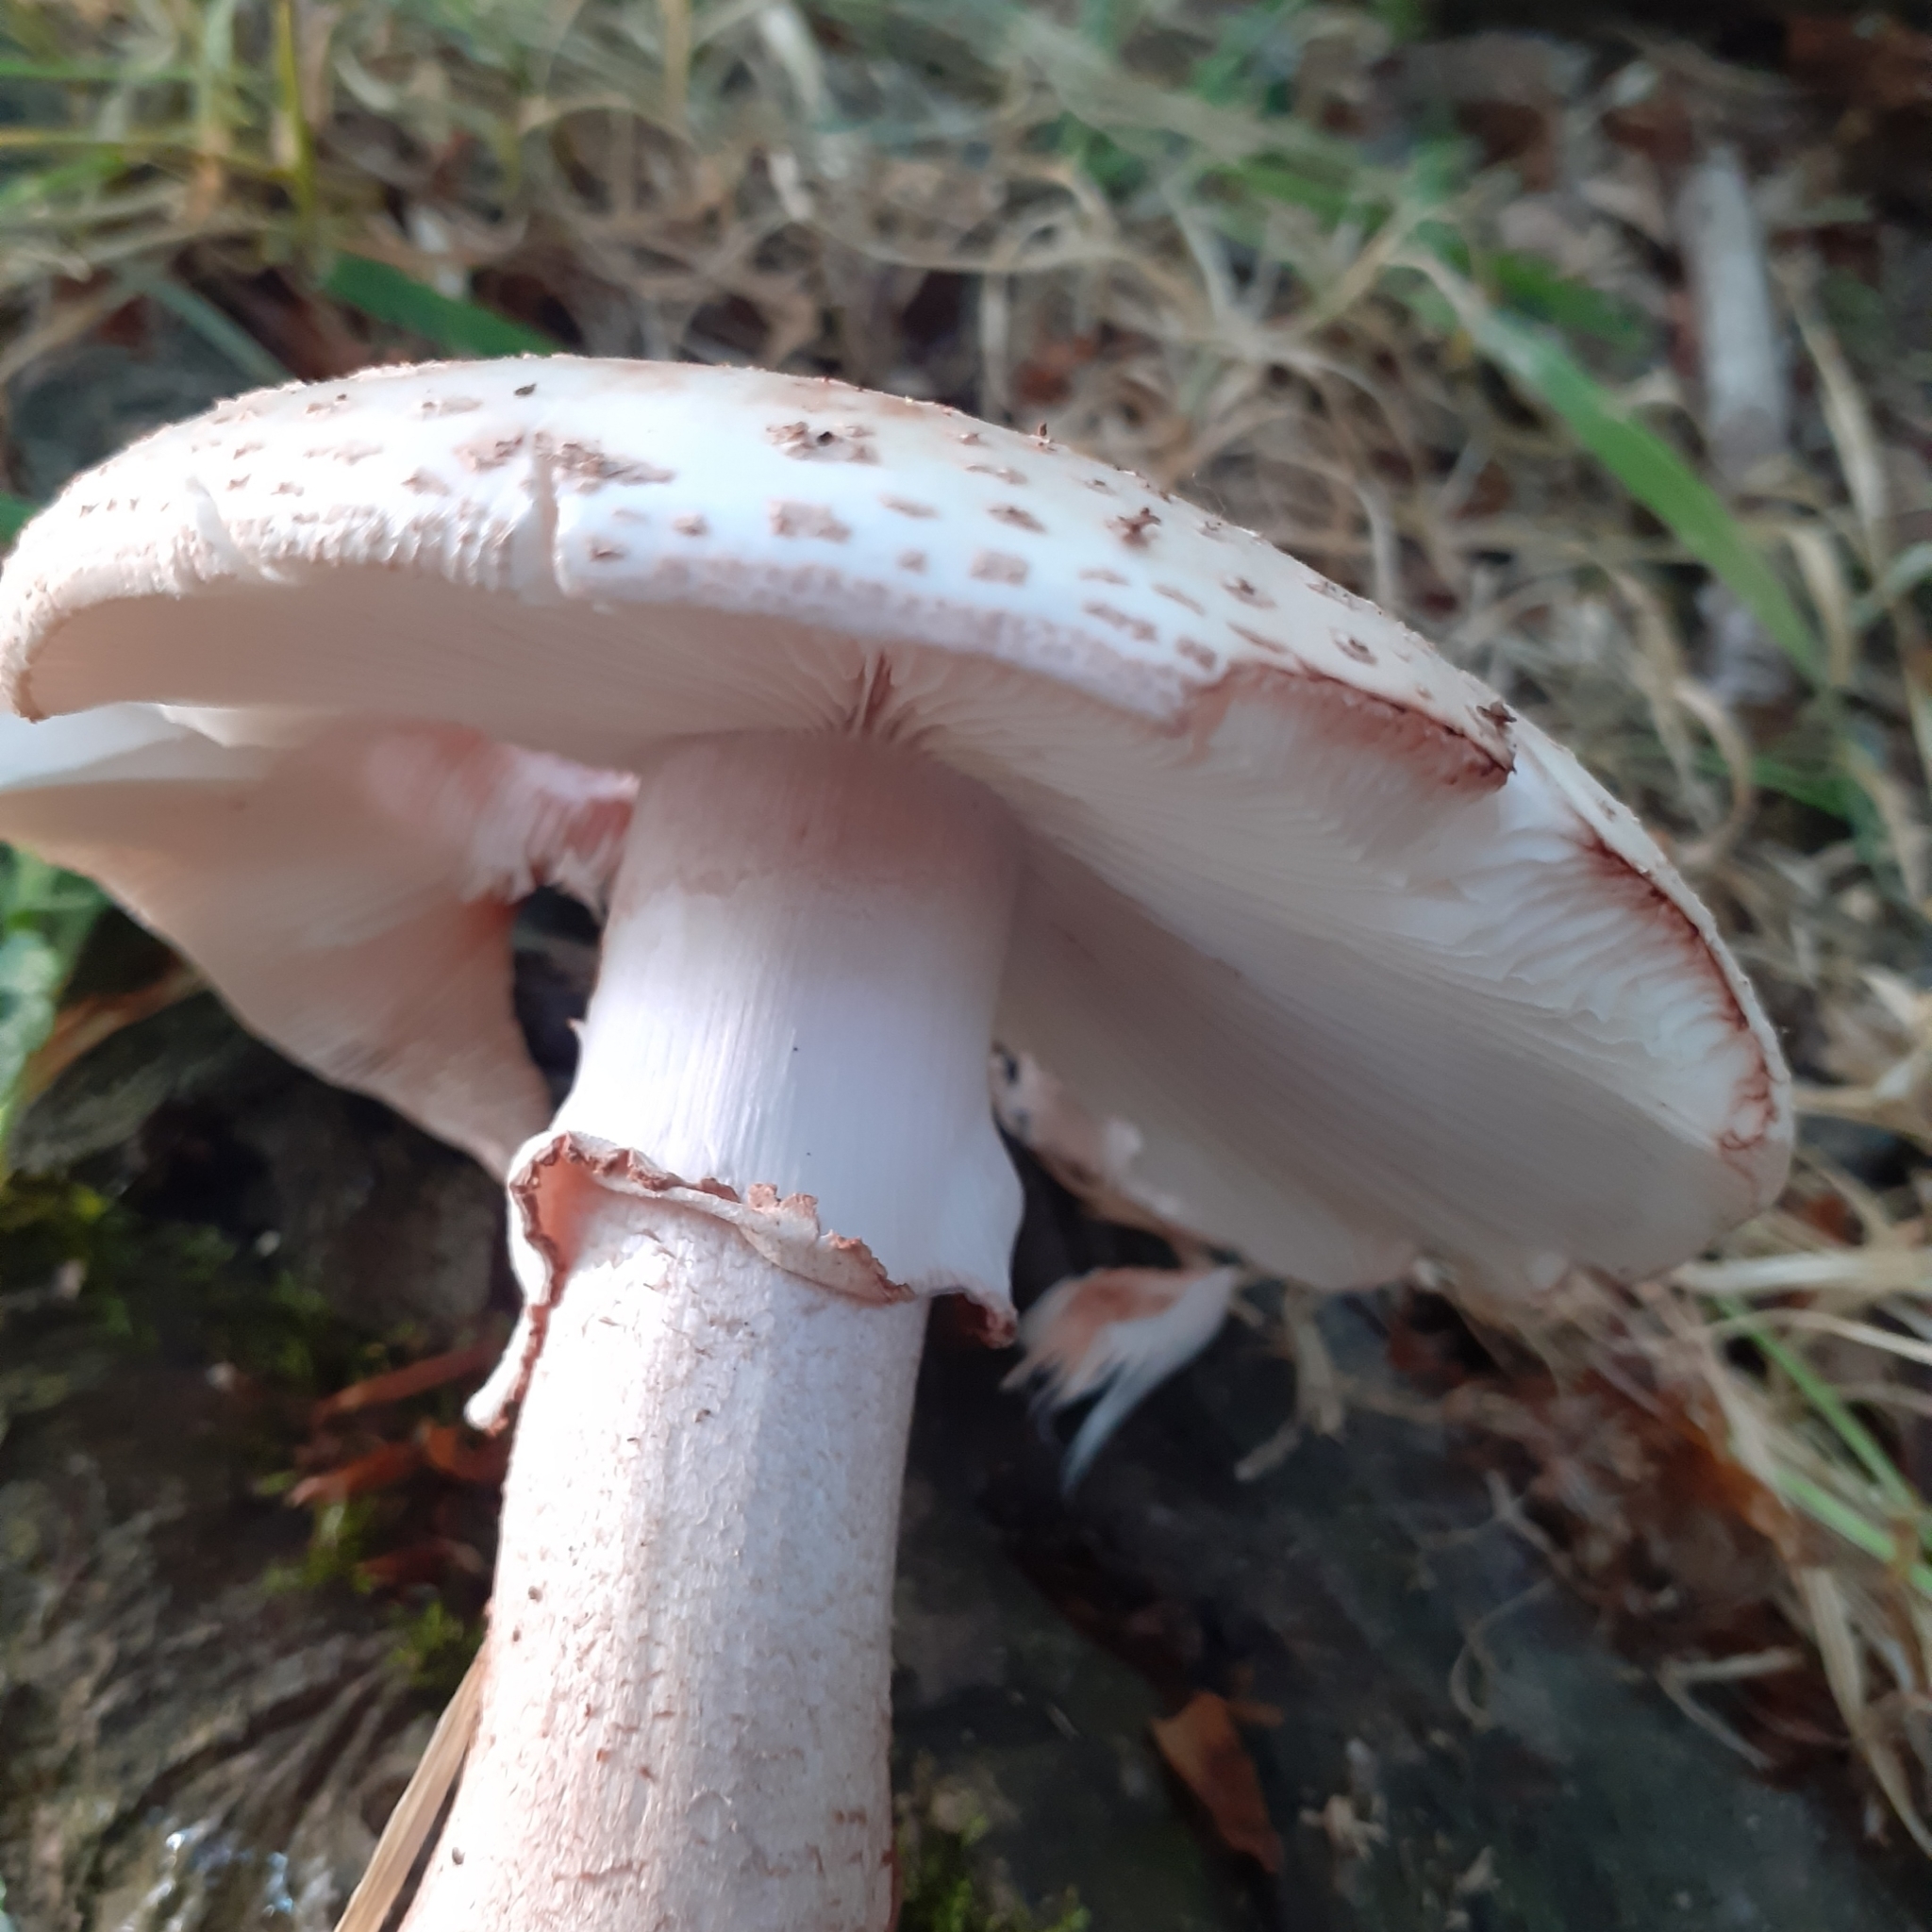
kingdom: Fungi
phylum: Basidiomycota
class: Agaricomycetes
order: Agaricales
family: Amanitaceae
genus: Amanita
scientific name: Amanita rubescens
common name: Blusher
